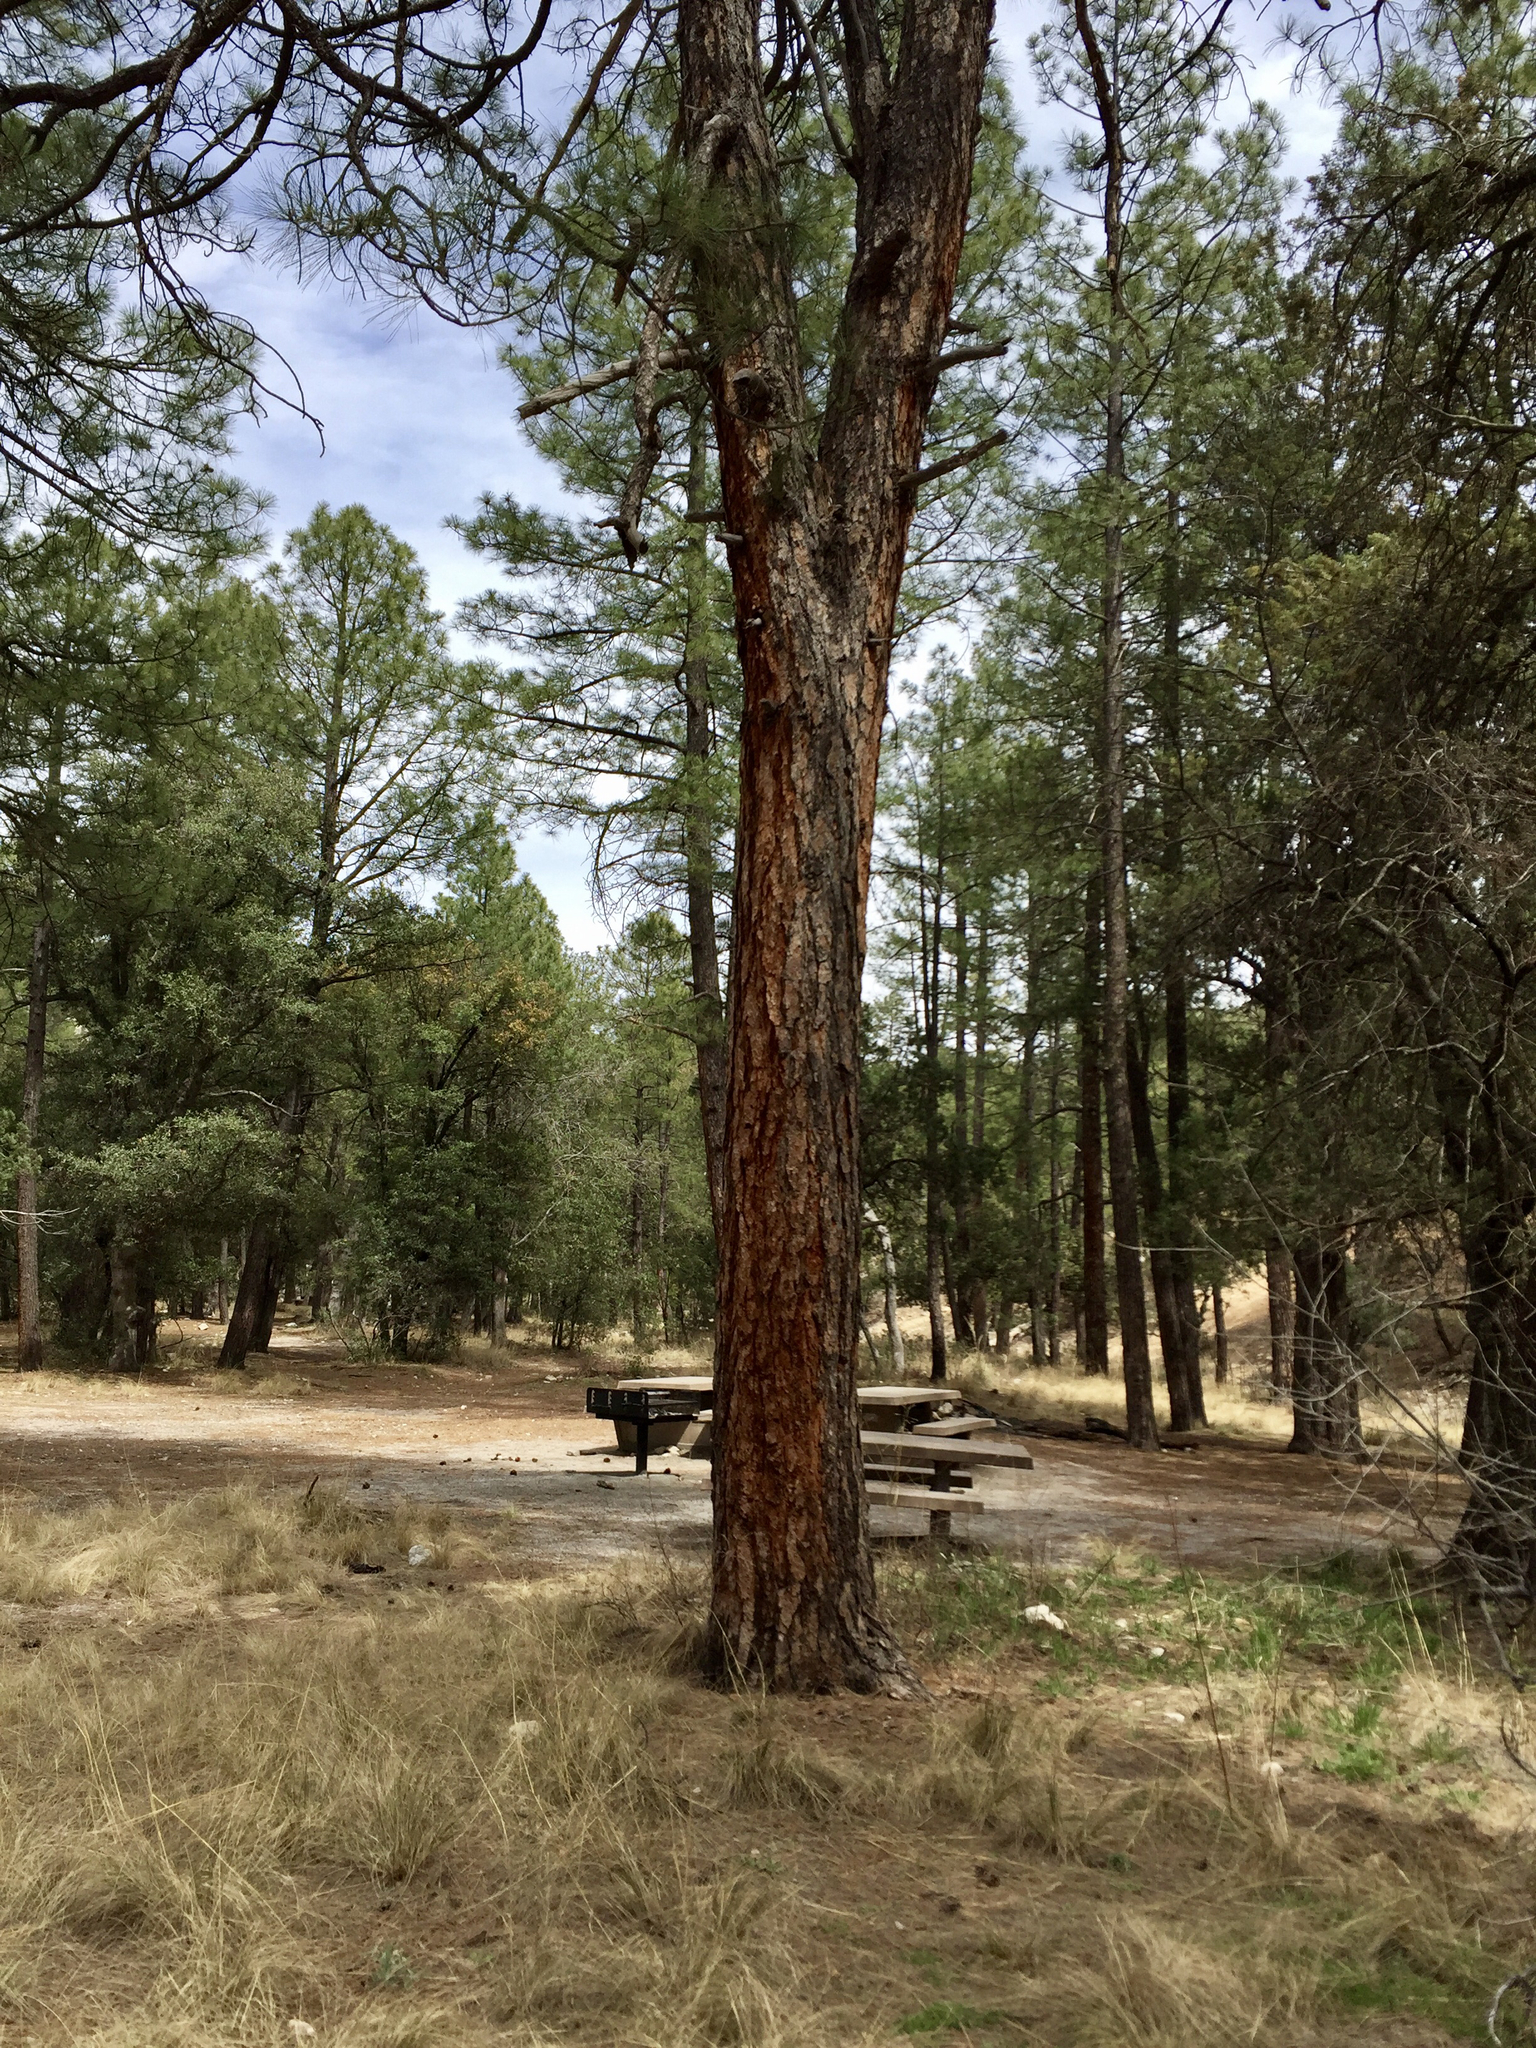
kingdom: Plantae
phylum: Tracheophyta
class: Pinopsida
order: Pinales
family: Pinaceae
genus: Pinus
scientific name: Pinus ponderosa
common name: Western yellow-pine
